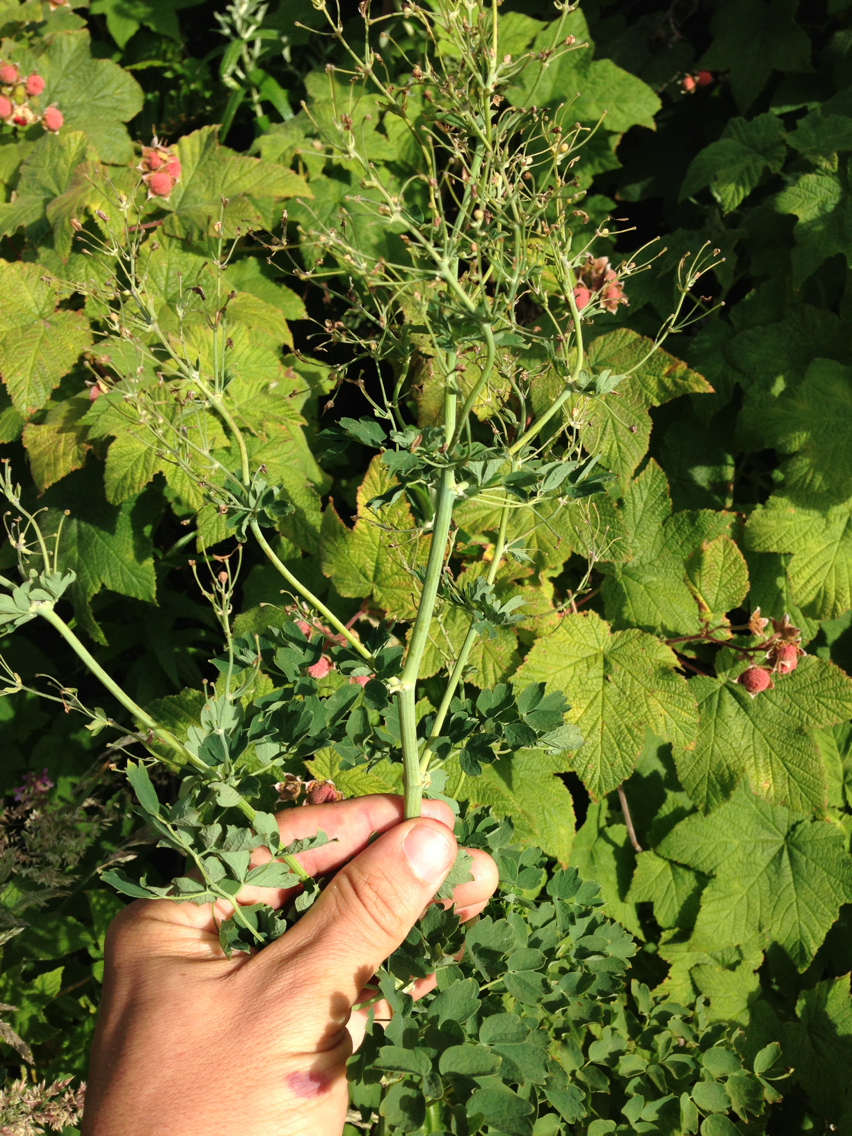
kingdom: Plantae
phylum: Tracheophyta
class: Magnoliopsida
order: Ranunculales
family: Ranunculaceae
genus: Thalictrum
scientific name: Thalictrum fendleri
